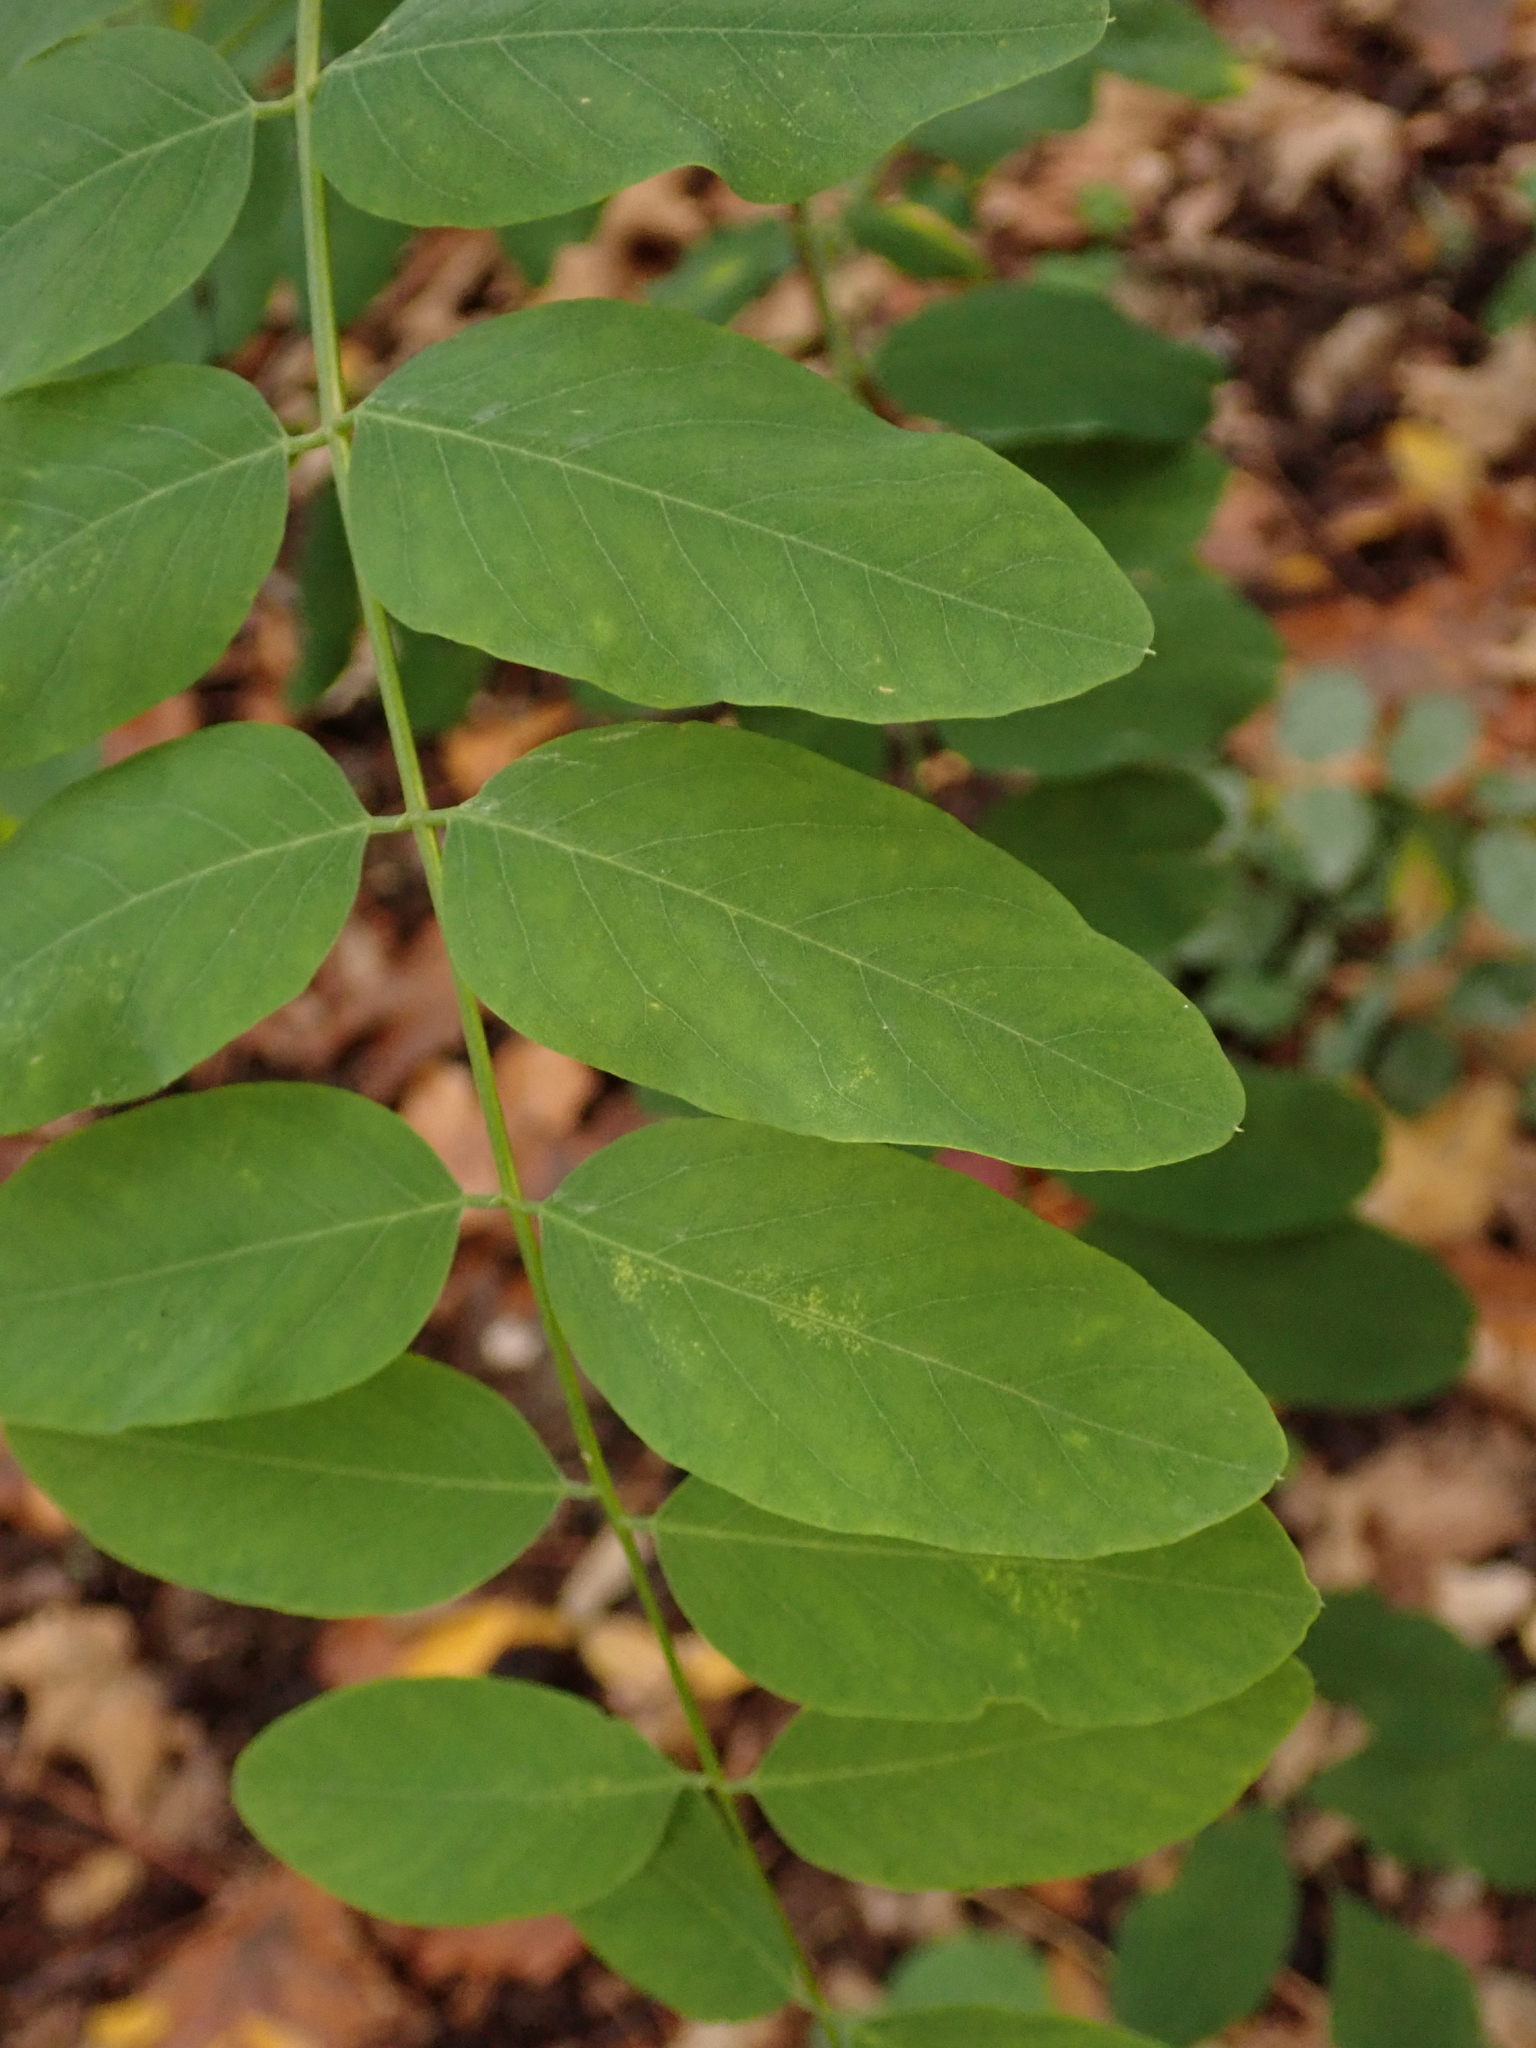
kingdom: Plantae
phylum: Tracheophyta
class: Magnoliopsida
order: Fabales
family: Fabaceae
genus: Robinia
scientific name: Robinia pseudoacacia
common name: Black locust
